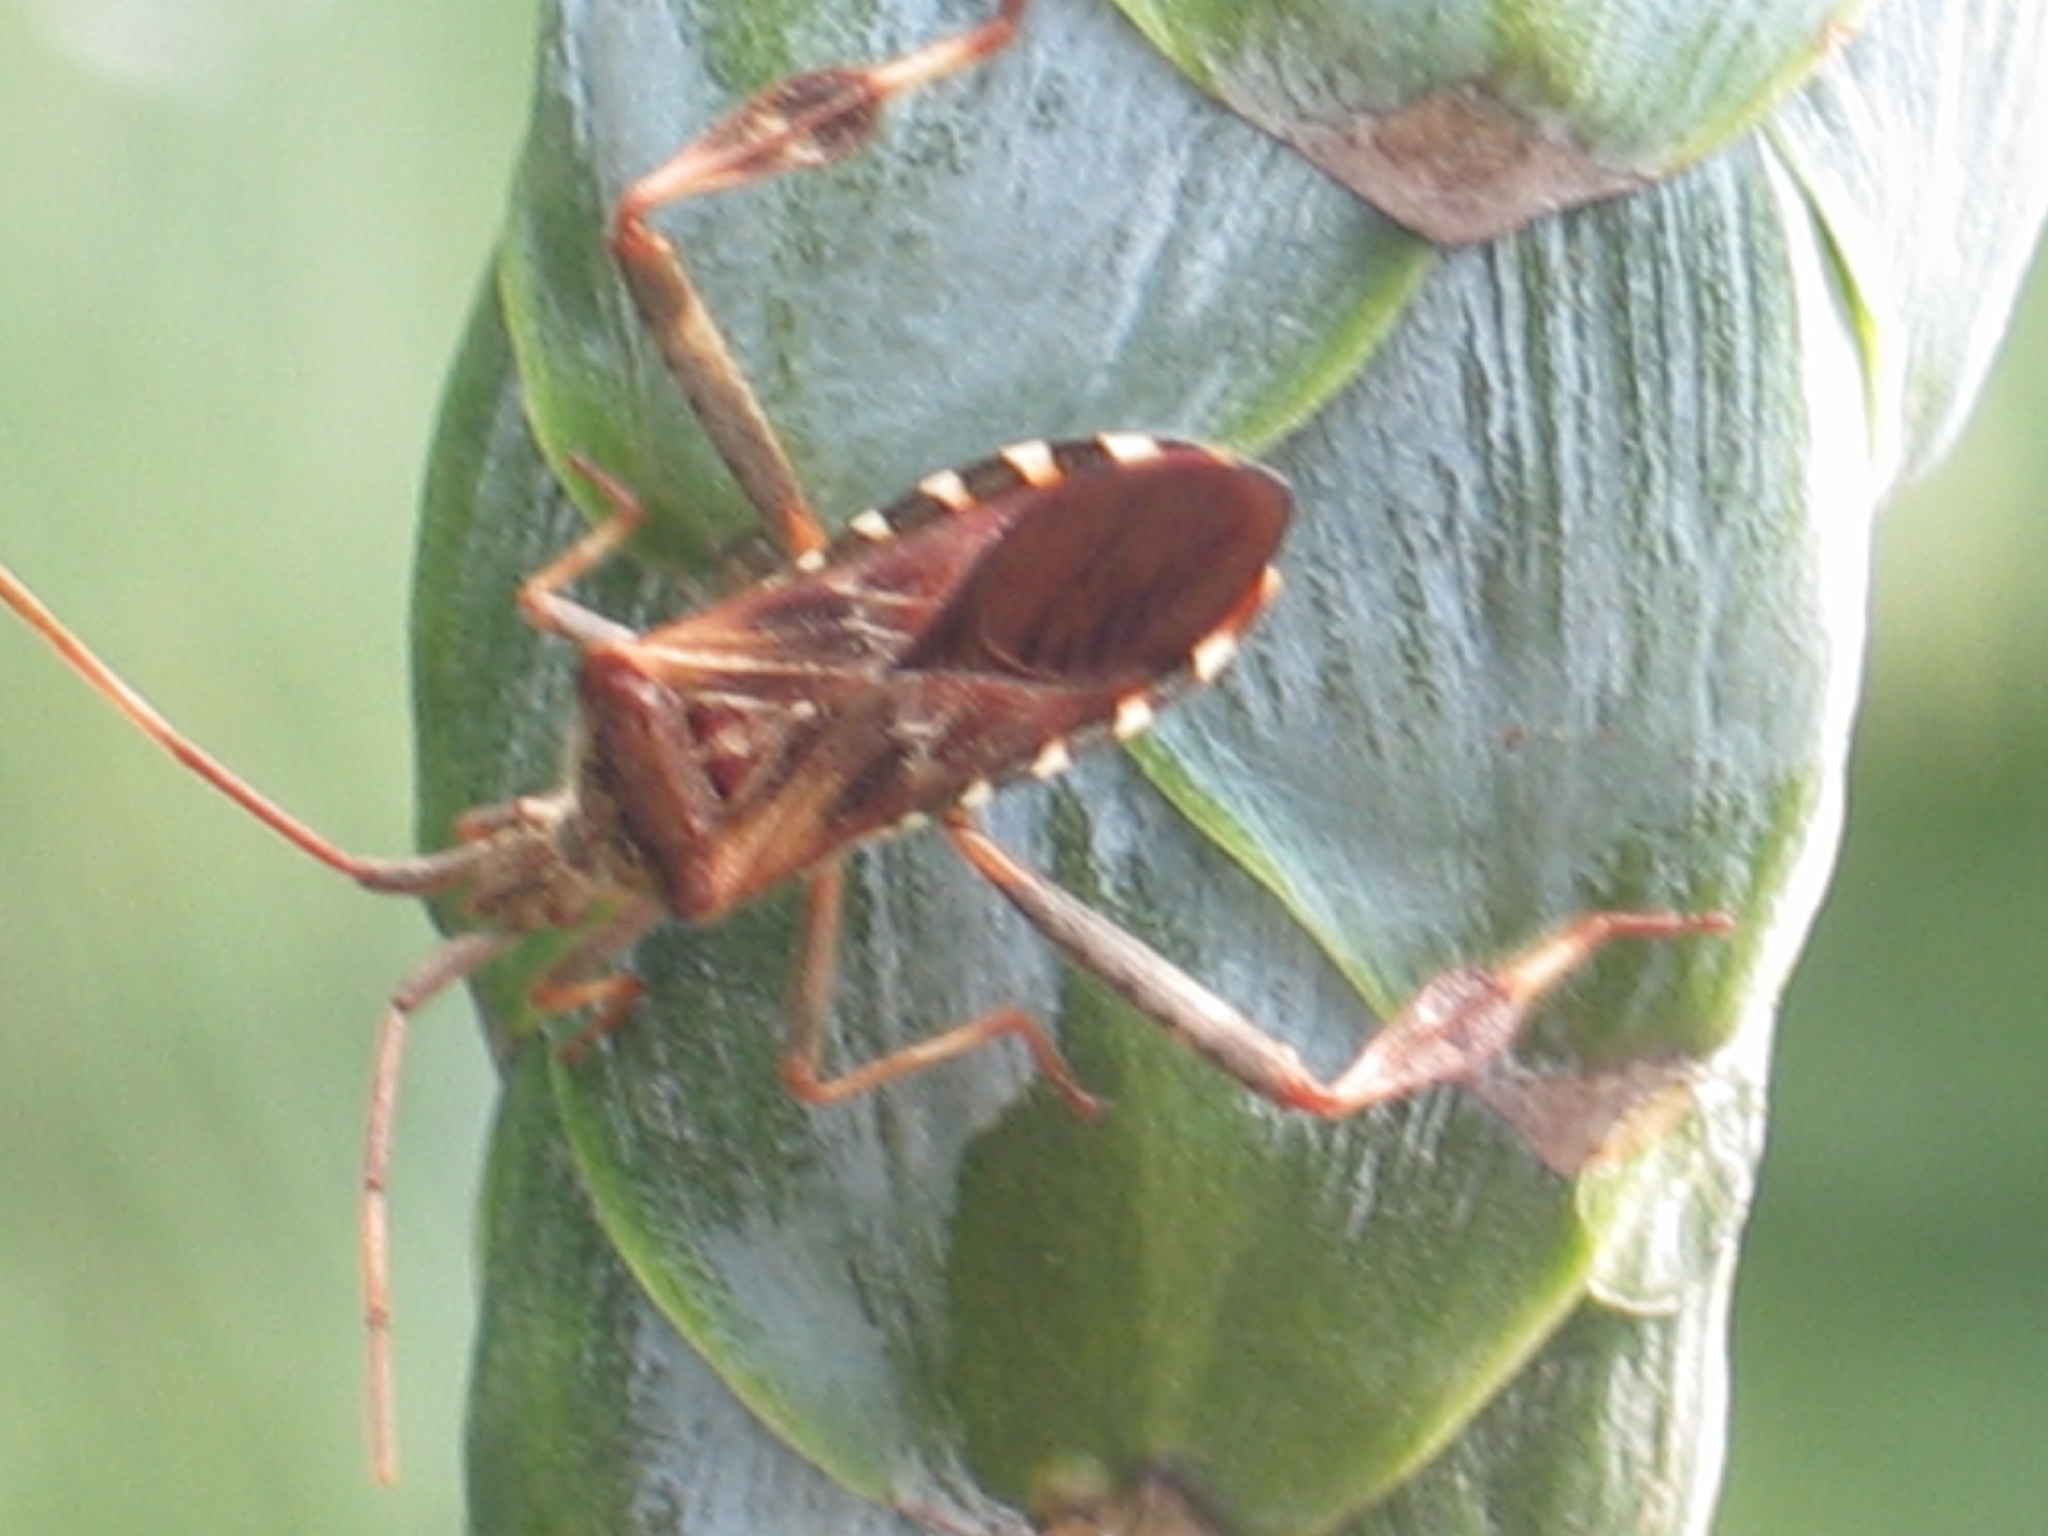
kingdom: Animalia
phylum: Arthropoda
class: Insecta
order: Hemiptera
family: Coreidae
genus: Leptoglossus
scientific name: Leptoglossus occidentalis
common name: Western conifer-seed bug
